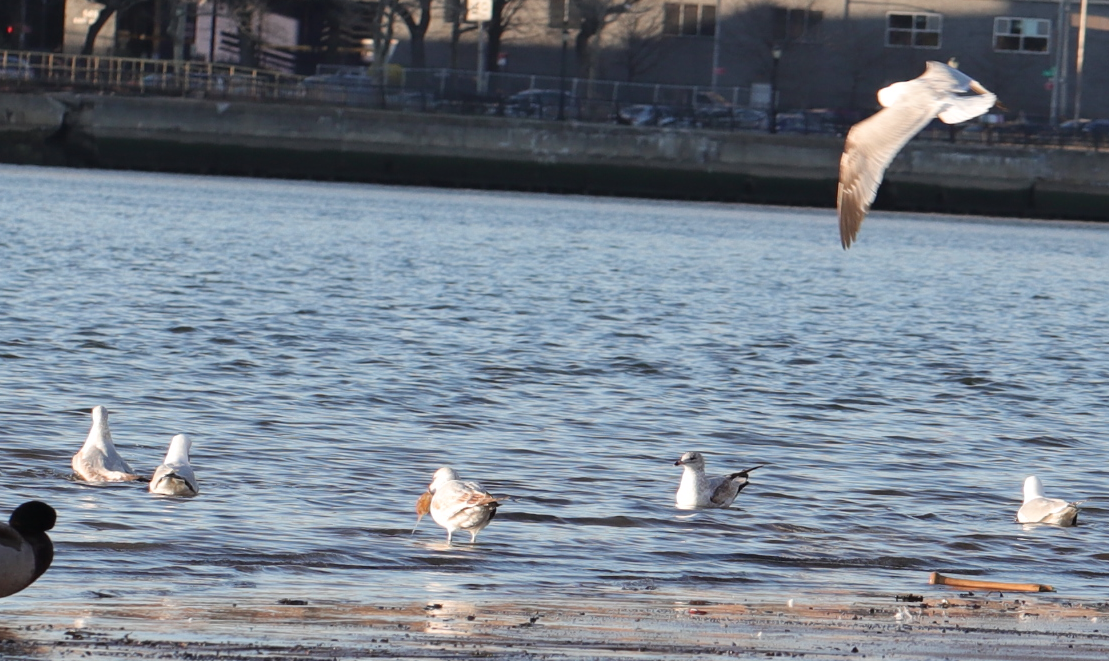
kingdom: Animalia
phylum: Chordata
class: Aves
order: Charadriiformes
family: Laridae
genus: Larus
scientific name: Larus delawarensis
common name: Ring-billed gull
